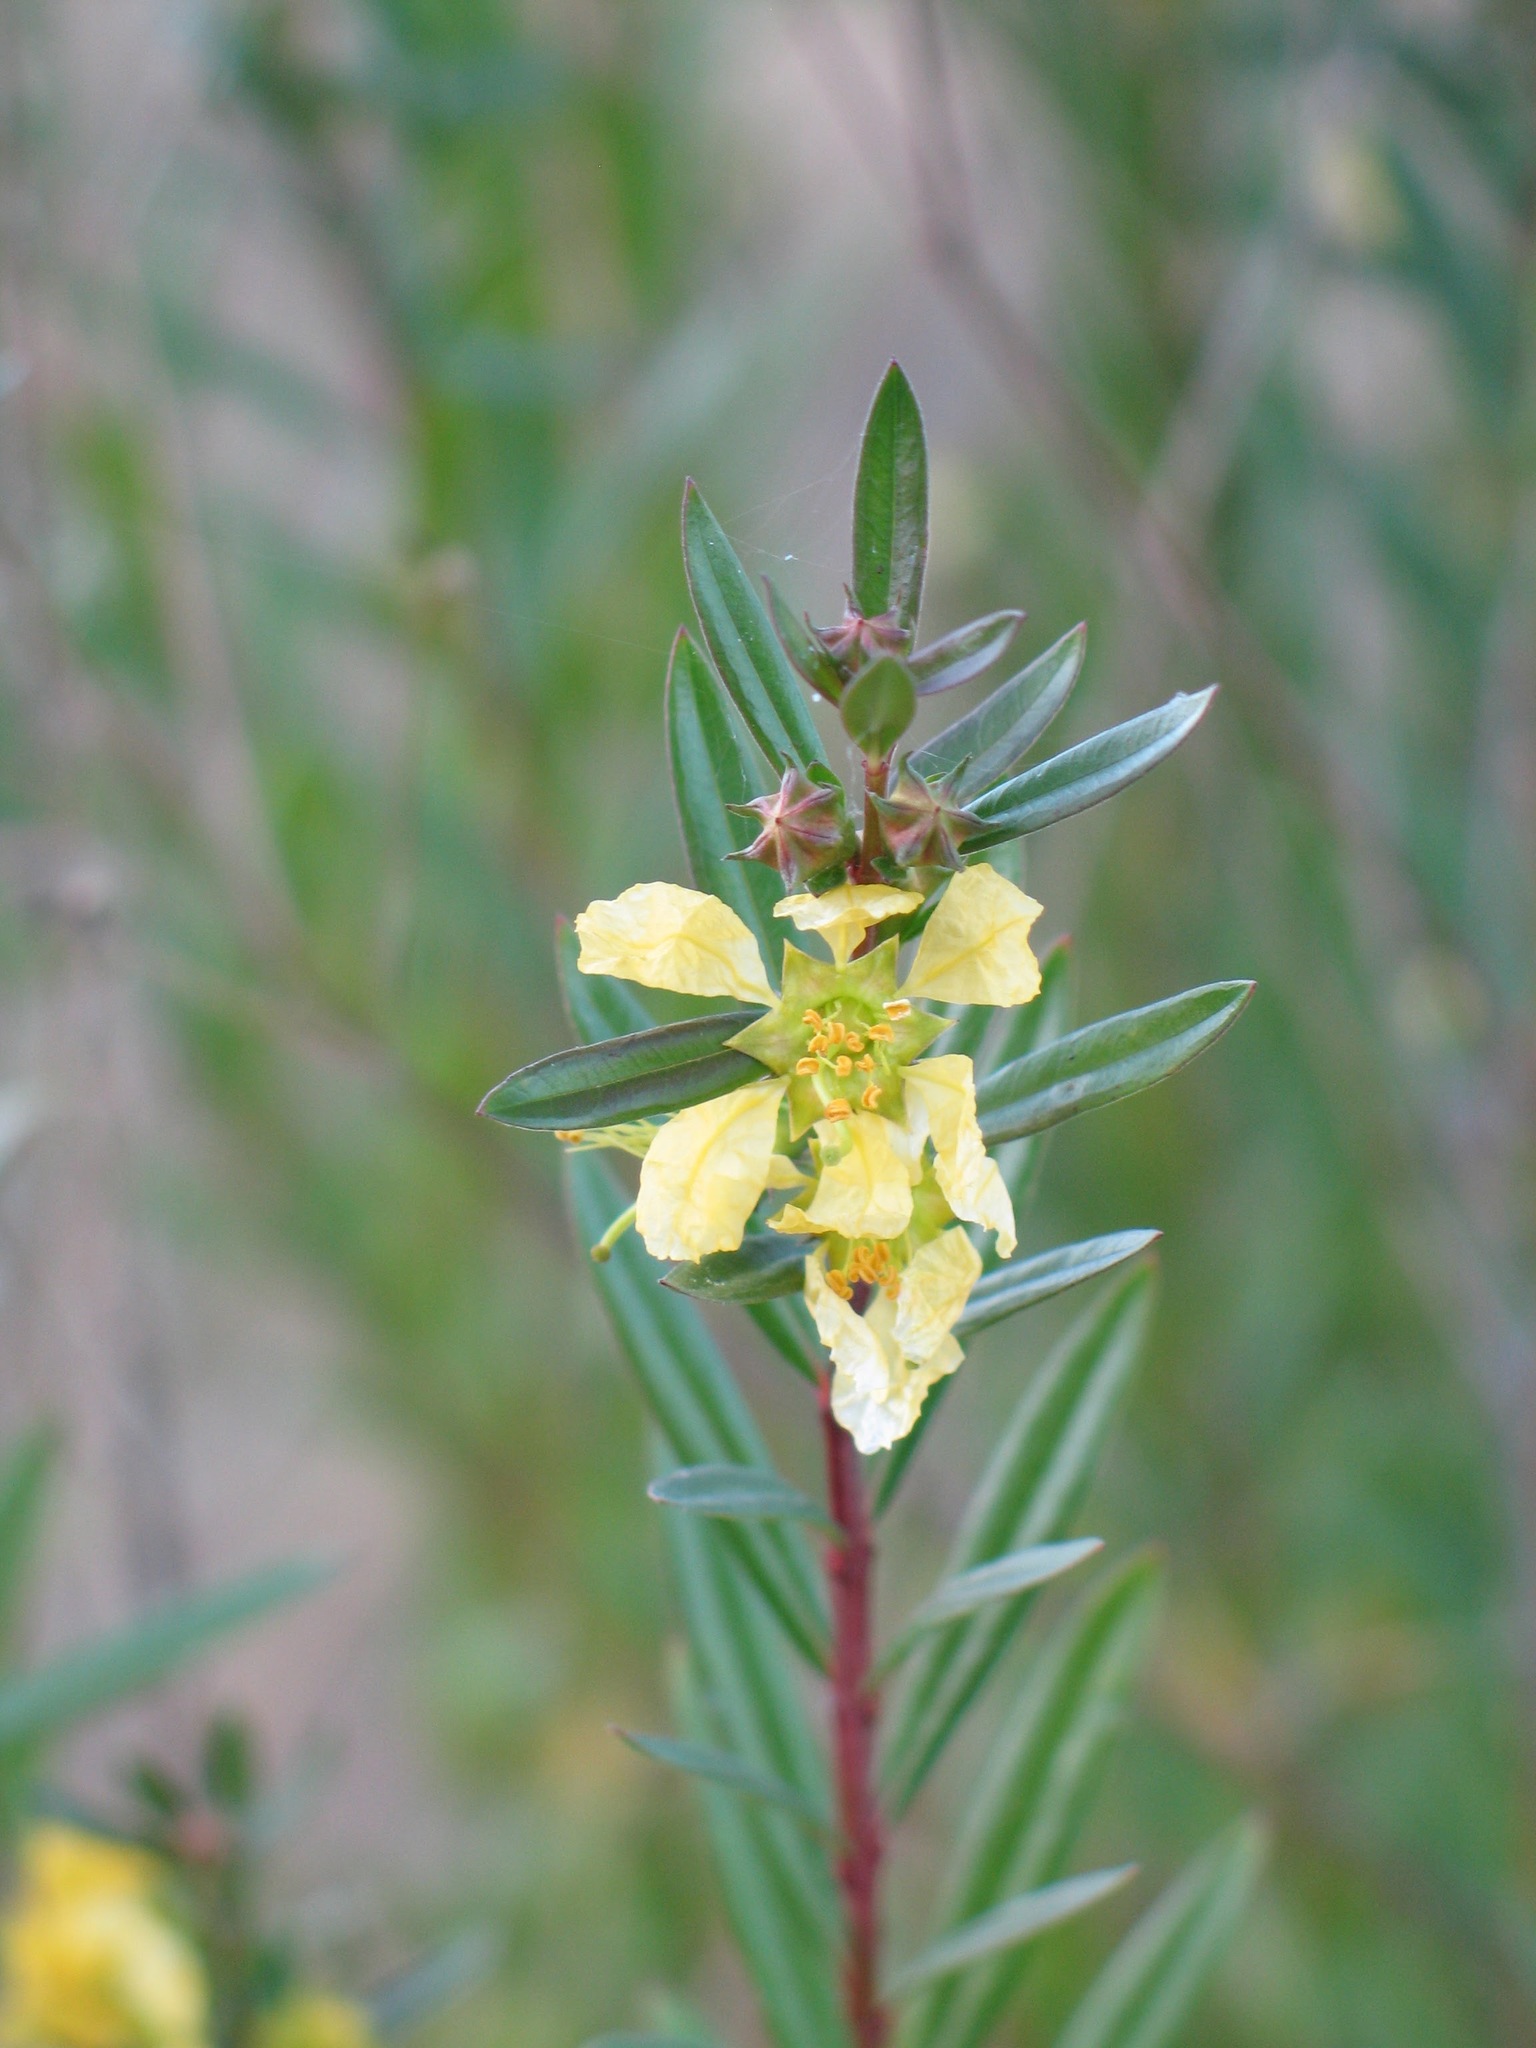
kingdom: Plantae
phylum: Tracheophyta
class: Magnoliopsida
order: Myrtales
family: Lythraceae
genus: Heimia
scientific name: Heimia salicifolia
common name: Willow-leaf heimia
